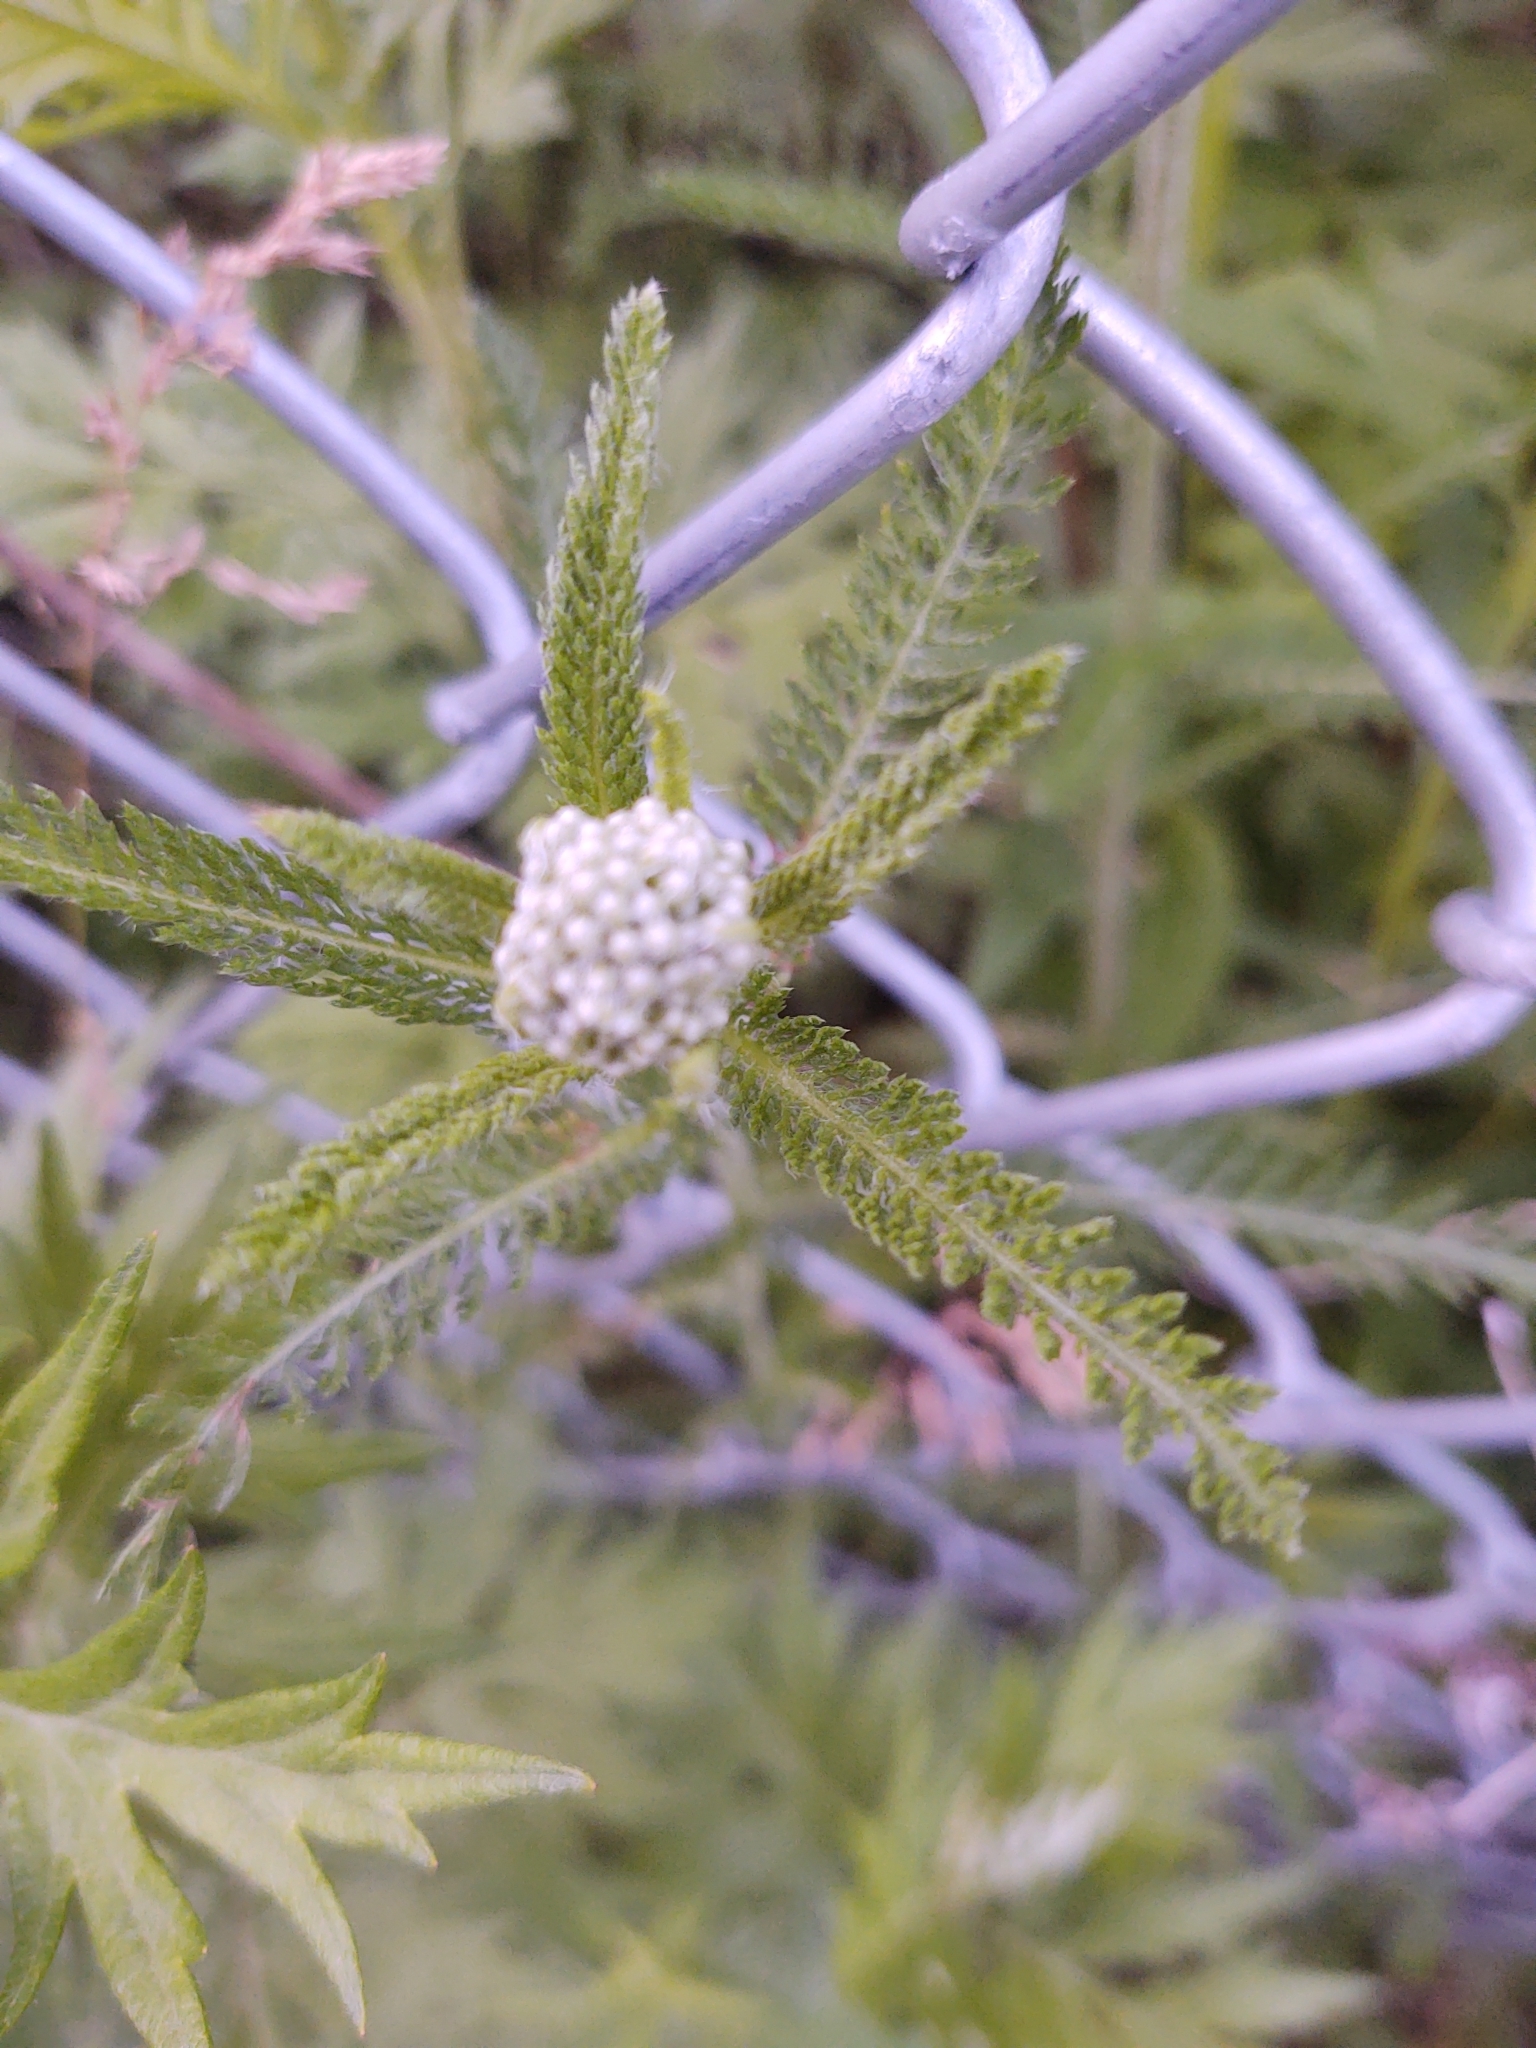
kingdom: Plantae
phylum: Tracheophyta
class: Magnoliopsida
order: Asterales
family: Asteraceae
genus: Achillea
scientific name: Achillea millefolium
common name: Yarrow
